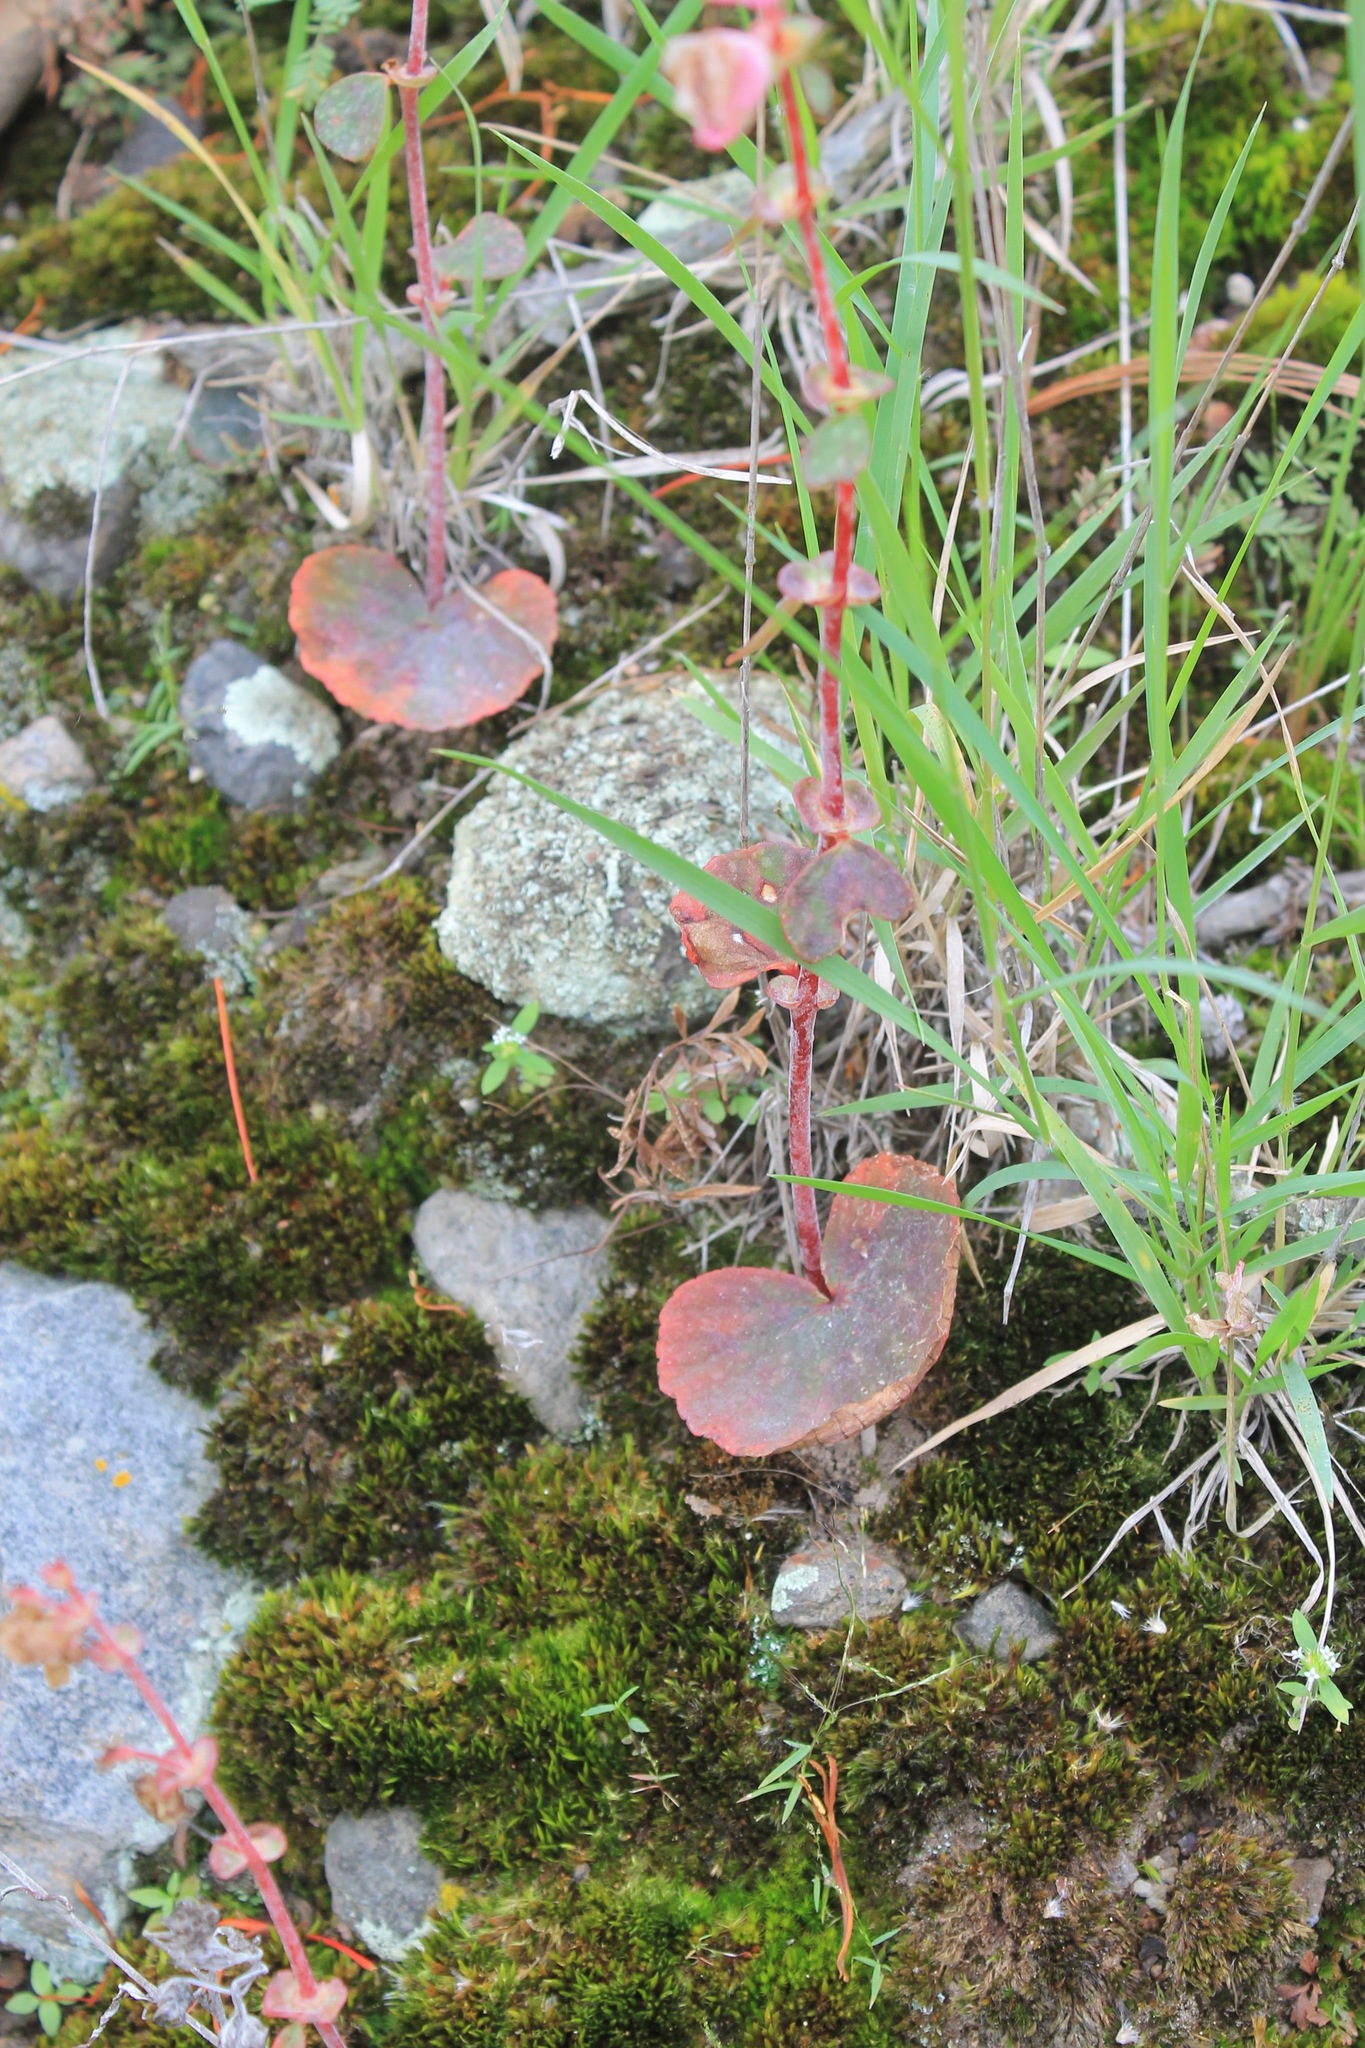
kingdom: Plantae
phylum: Tracheophyta
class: Magnoliopsida
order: Cucurbitales
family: Begoniaceae
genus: Begonia
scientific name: Begonia tapatia
